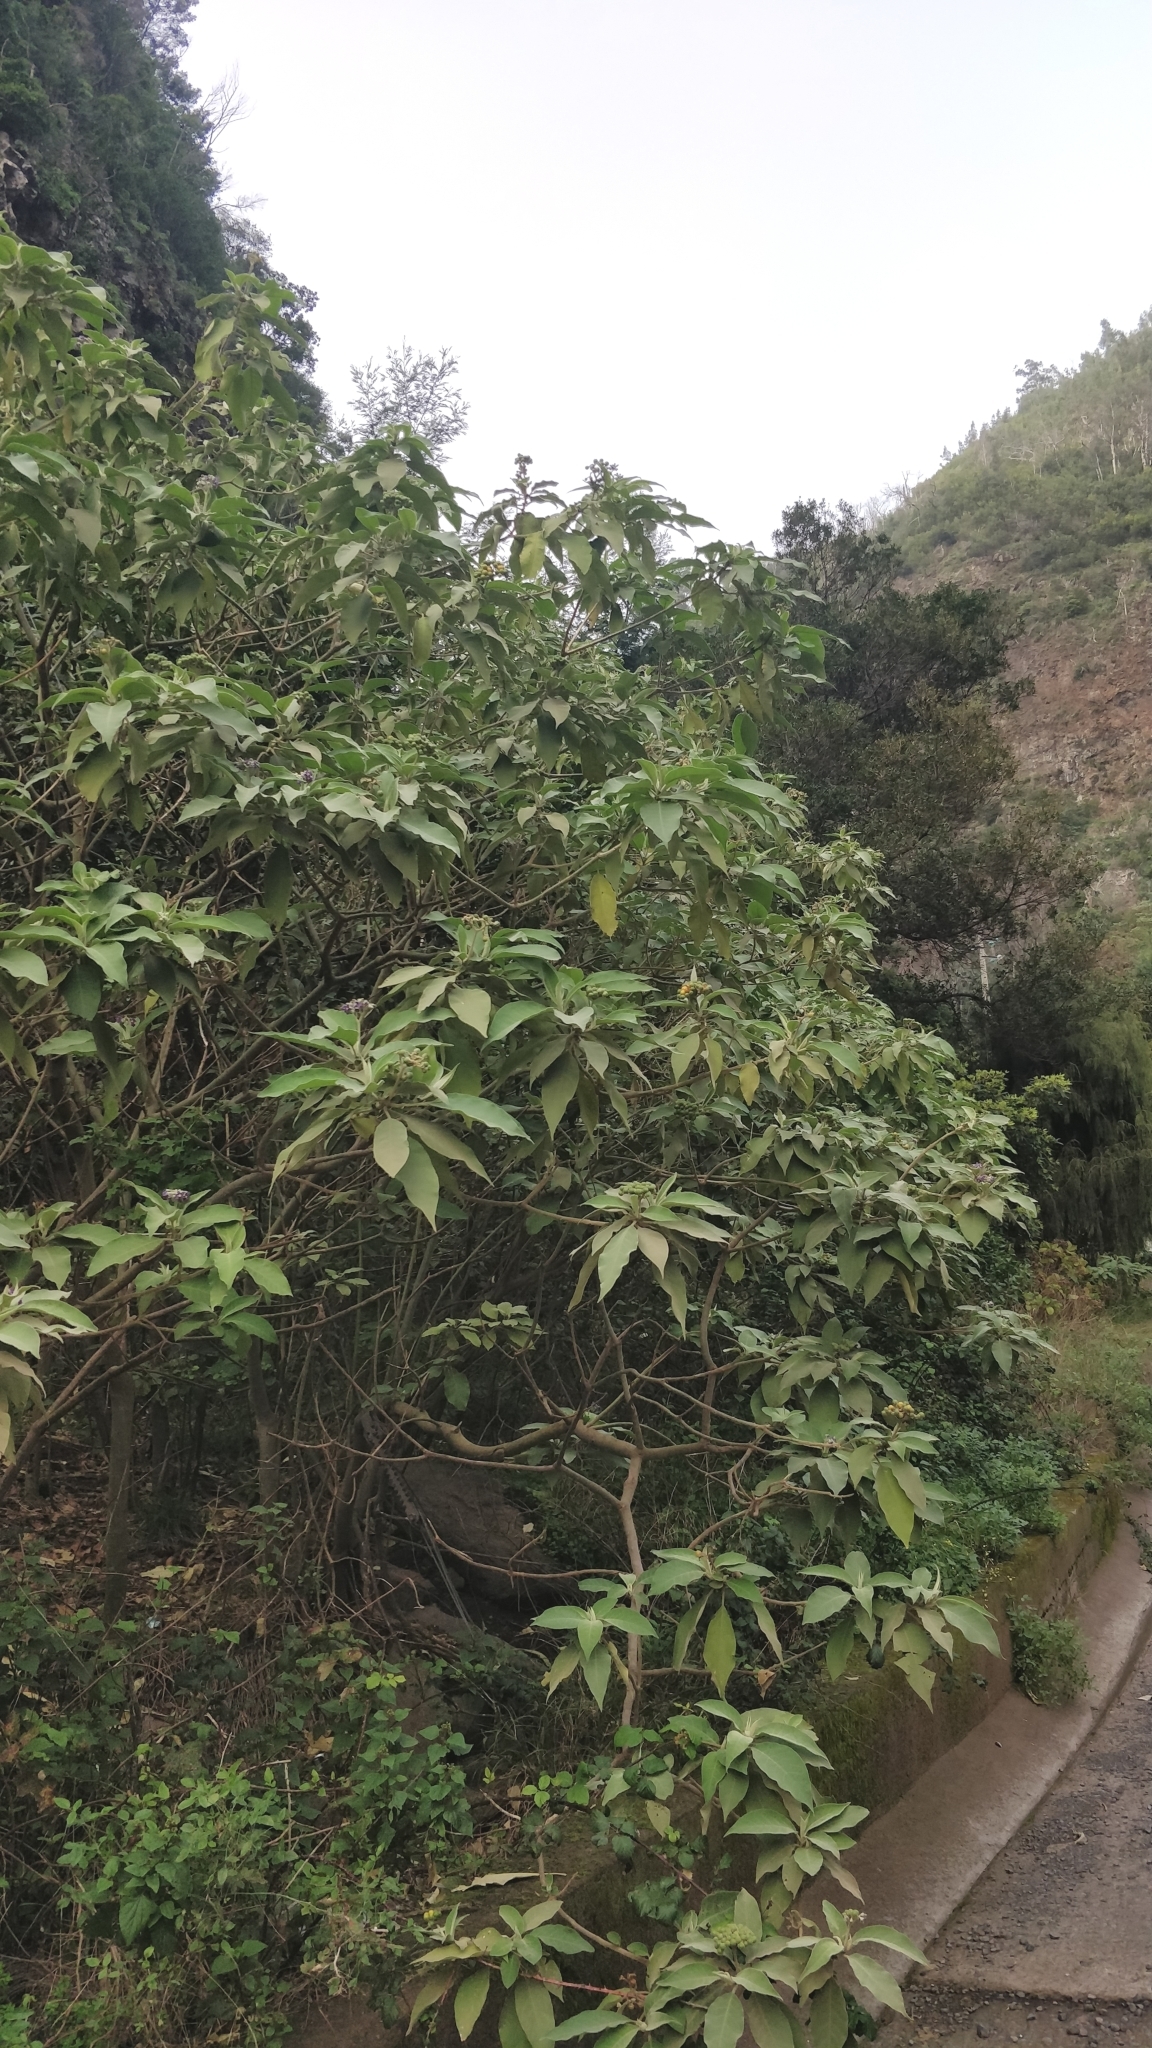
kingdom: Plantae
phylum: Tracheophyta
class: Magnoliopsida
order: Solanales
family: Solanaceae
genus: Solanum
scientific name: Solanum mauritianum
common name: Earleaf nightshade
